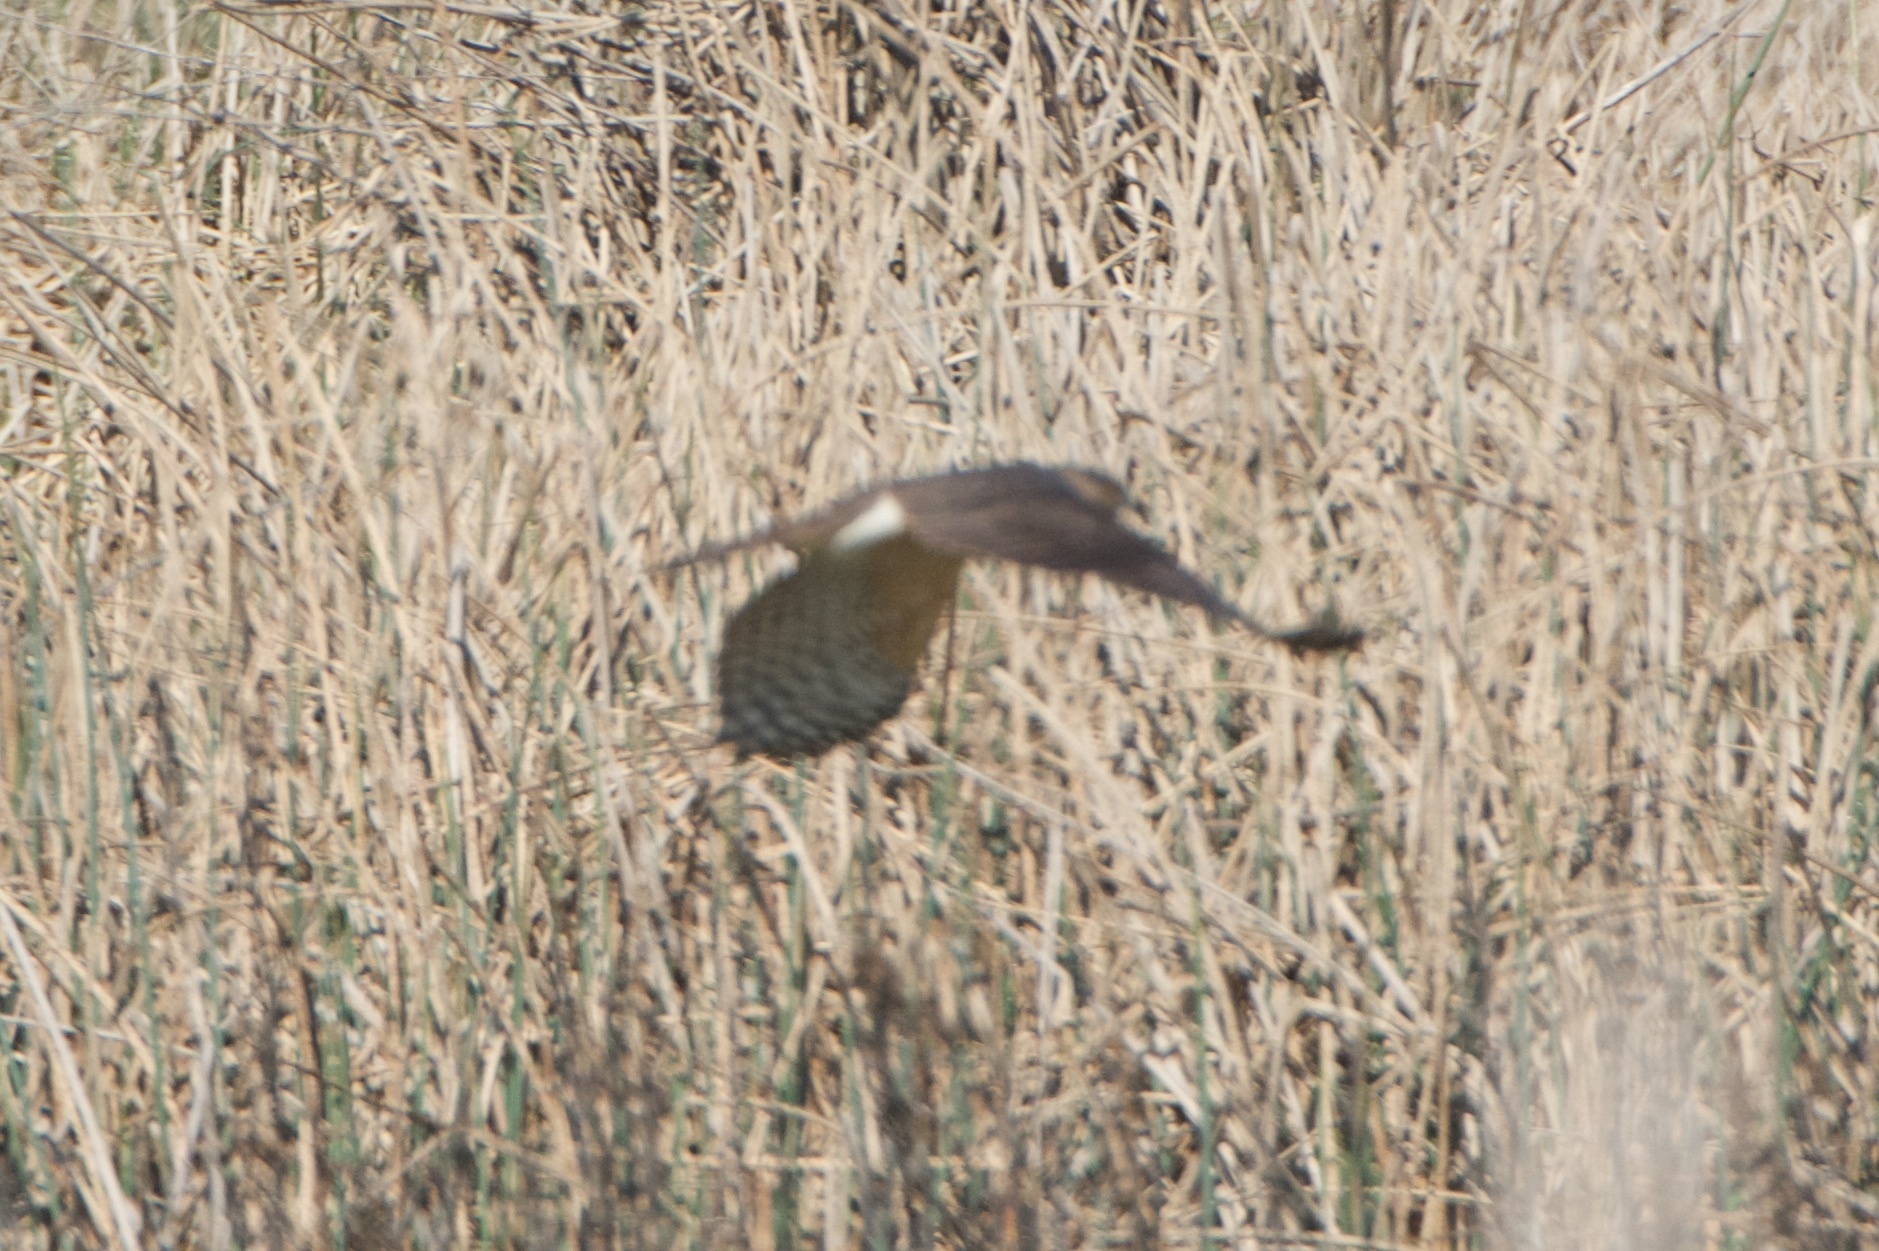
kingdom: Animalia
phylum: Chordata
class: Aves
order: Accipitriformes
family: Accipitridae
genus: Accipiter
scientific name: Accipiter cooperii
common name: Cooper's hawk
